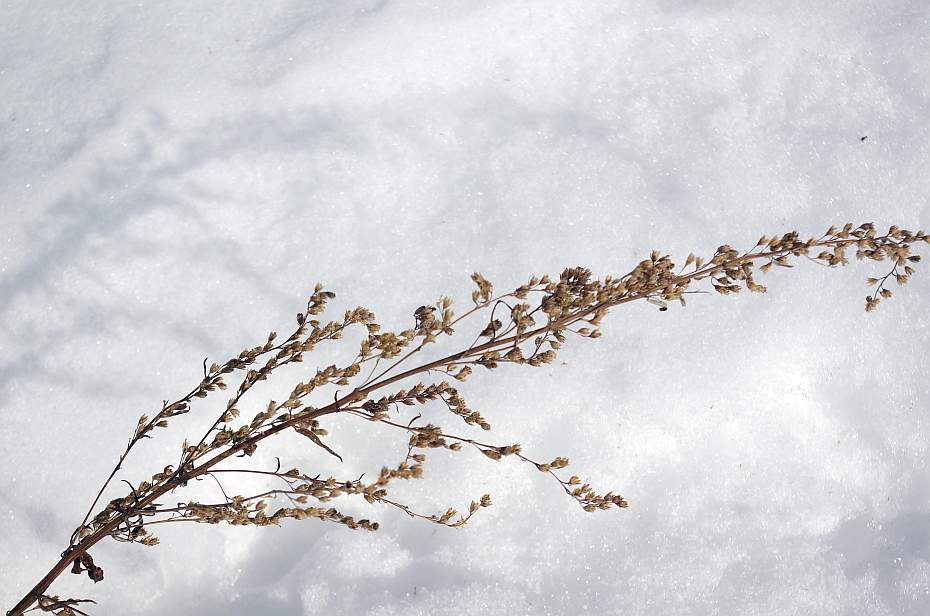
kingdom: Plantae
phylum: Tracheophyta
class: Magnoliopsida
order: Asterales
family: Asteraceae
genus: Artemisia
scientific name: Artemisia vulgaris
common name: Mugwort
